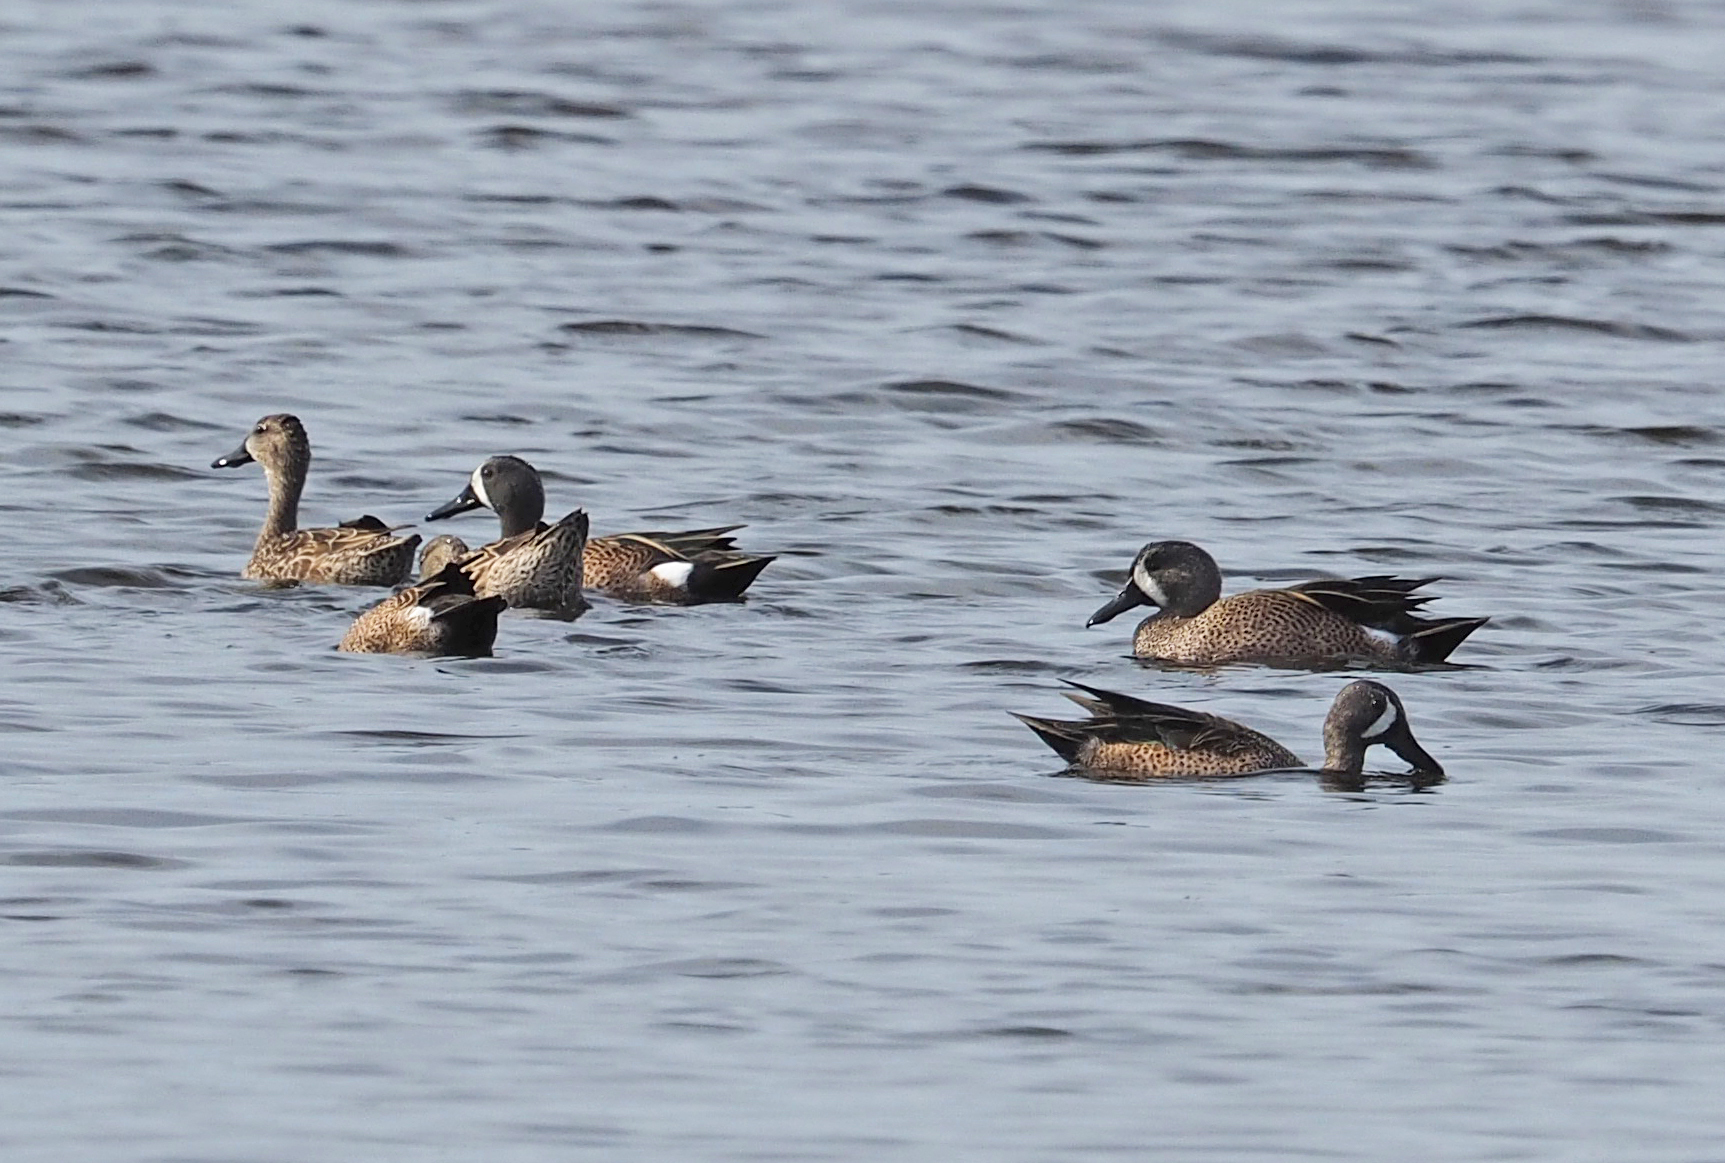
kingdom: Animalia
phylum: Chordata
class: Aves
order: Anseriformes
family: Anatidae
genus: Spatula
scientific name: Spatula discors
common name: Blue-winged teal
